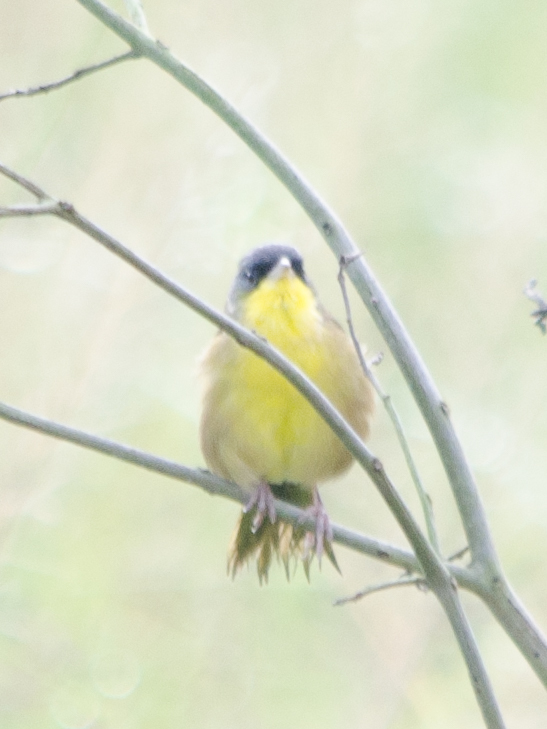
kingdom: Animalia
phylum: Chordata
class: Aves
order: Passeriformes
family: Parulidae
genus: Geothlypis
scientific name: Geothlypis poliocephala
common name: Gray-crowned yellowthroat
